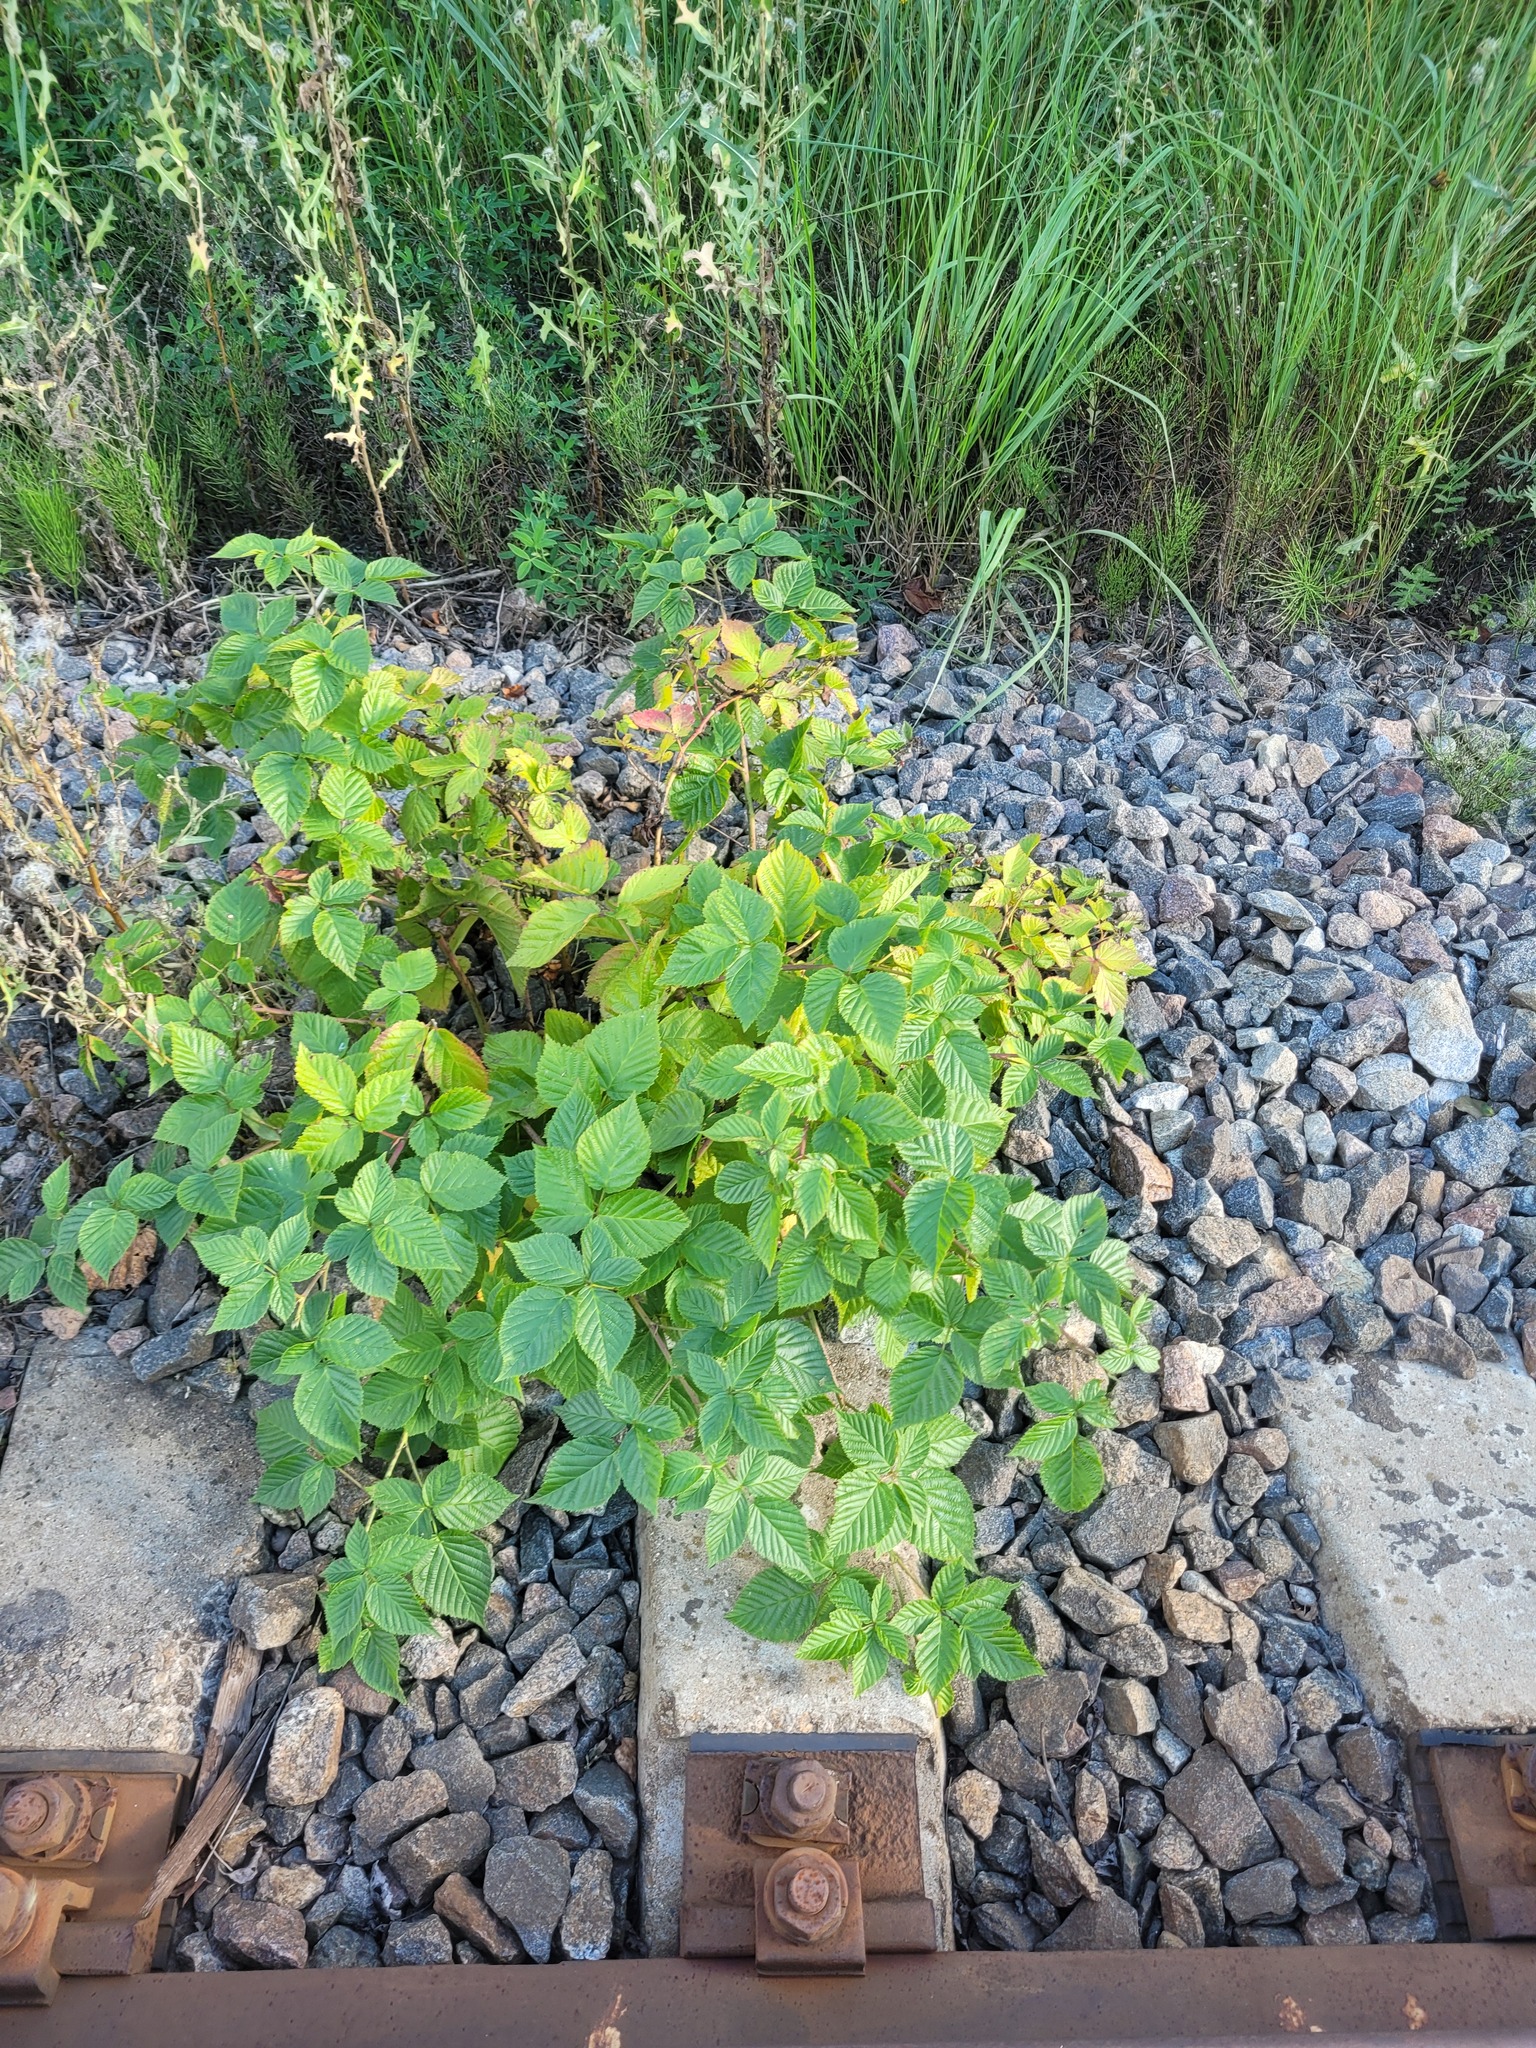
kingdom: Plantae
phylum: Tracheophyta
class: Magnoliopsida
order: Rosales
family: Rosaceae
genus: Rubus
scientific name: Rubus polonicus
